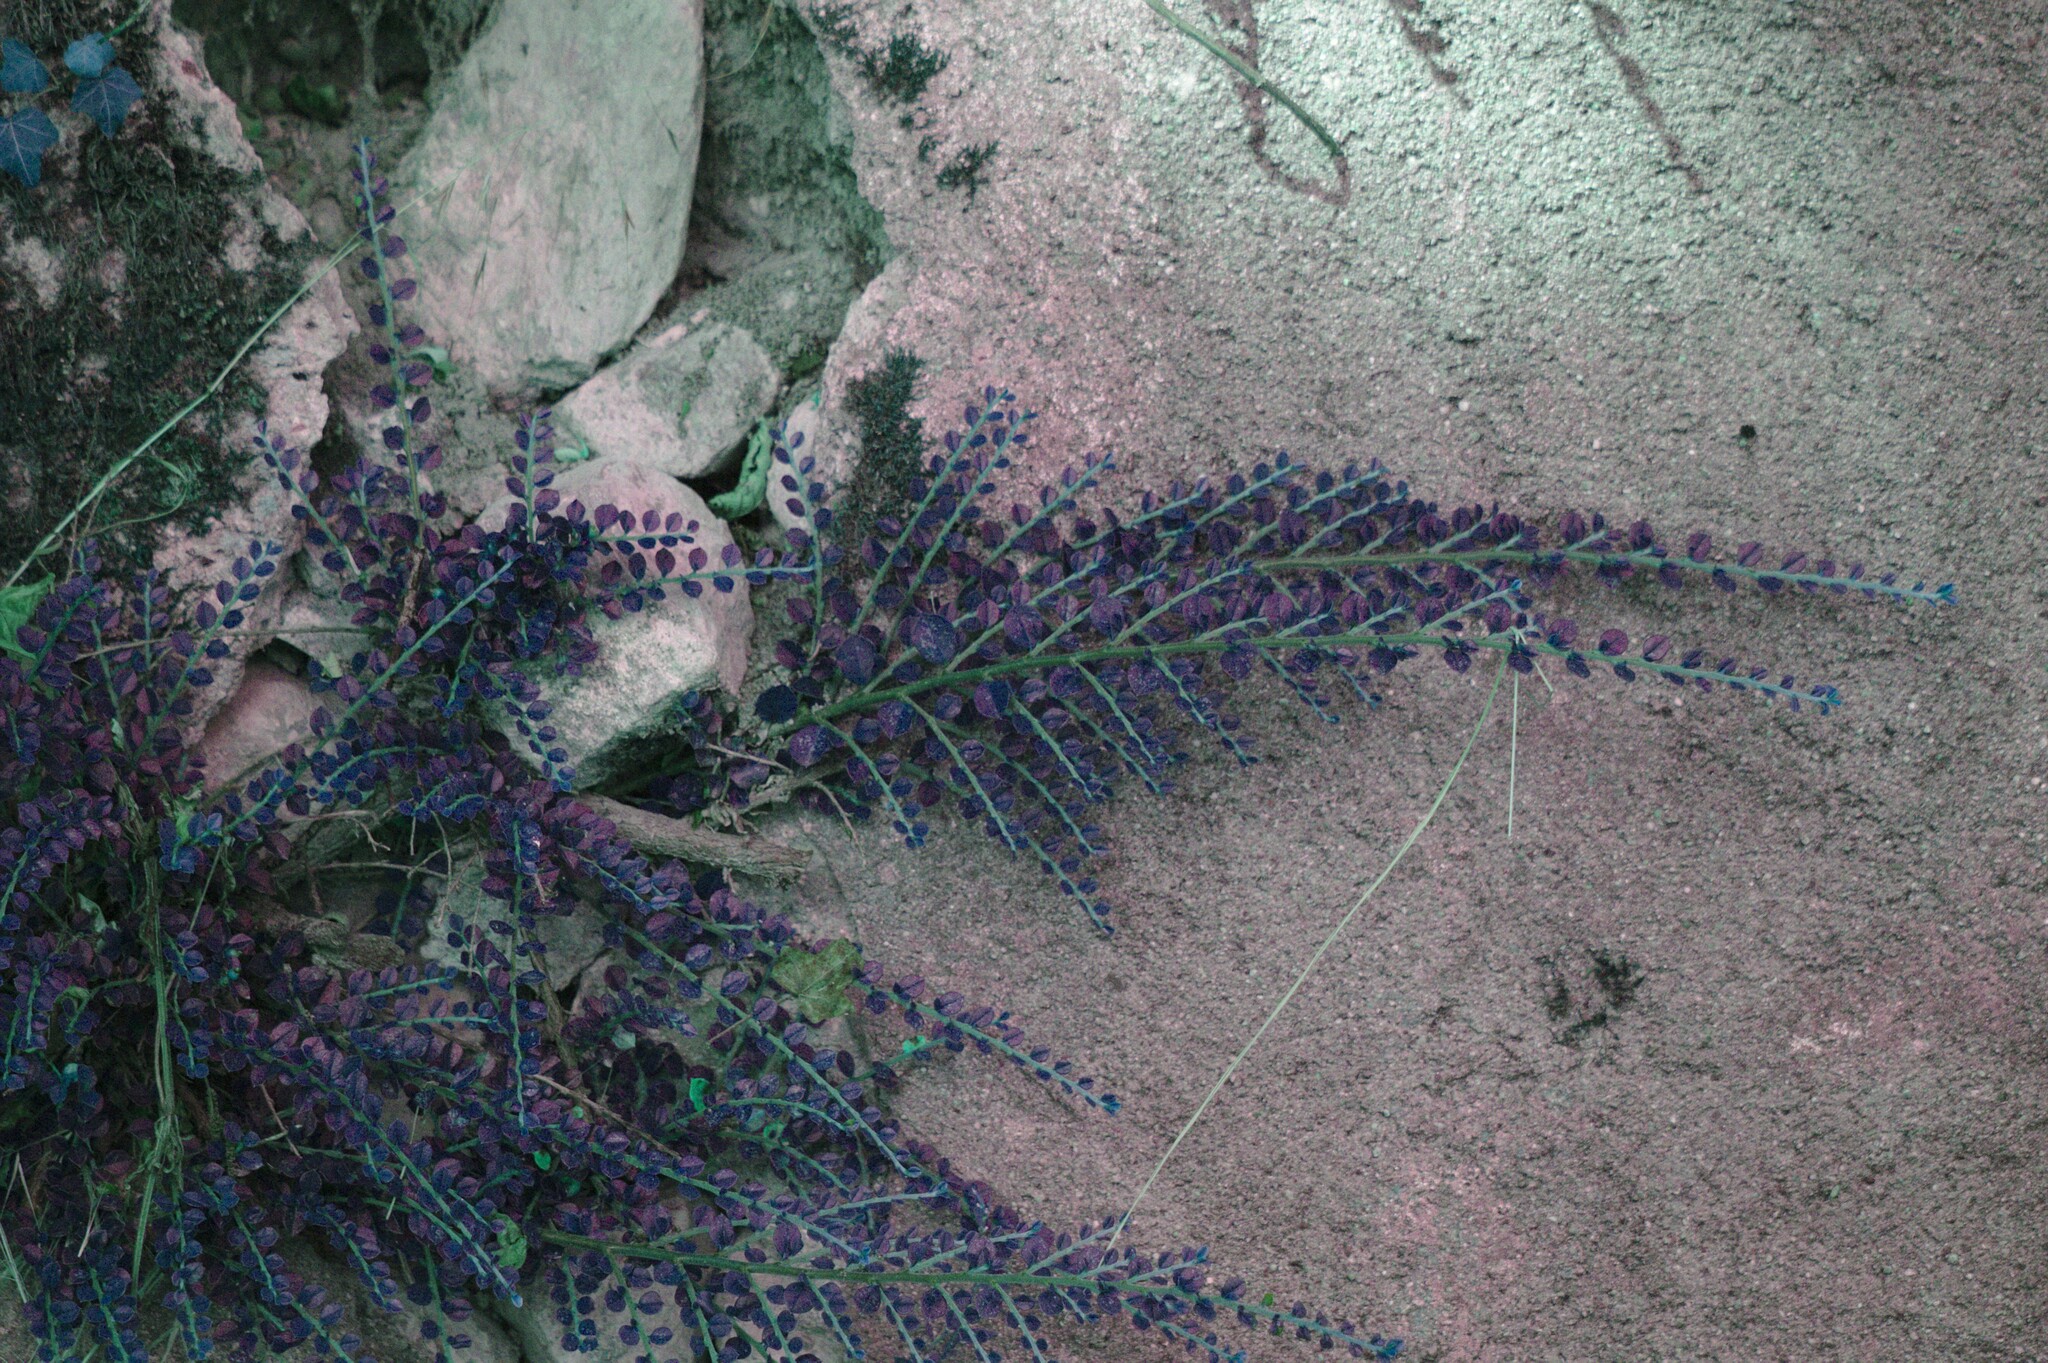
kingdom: Plantae
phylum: Tracheophyta
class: Magnoliopsida
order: Rosales
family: Rosaceae
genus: Cotoneaster
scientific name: Cotoneaster horizontalis
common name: Wall cotoneaster
